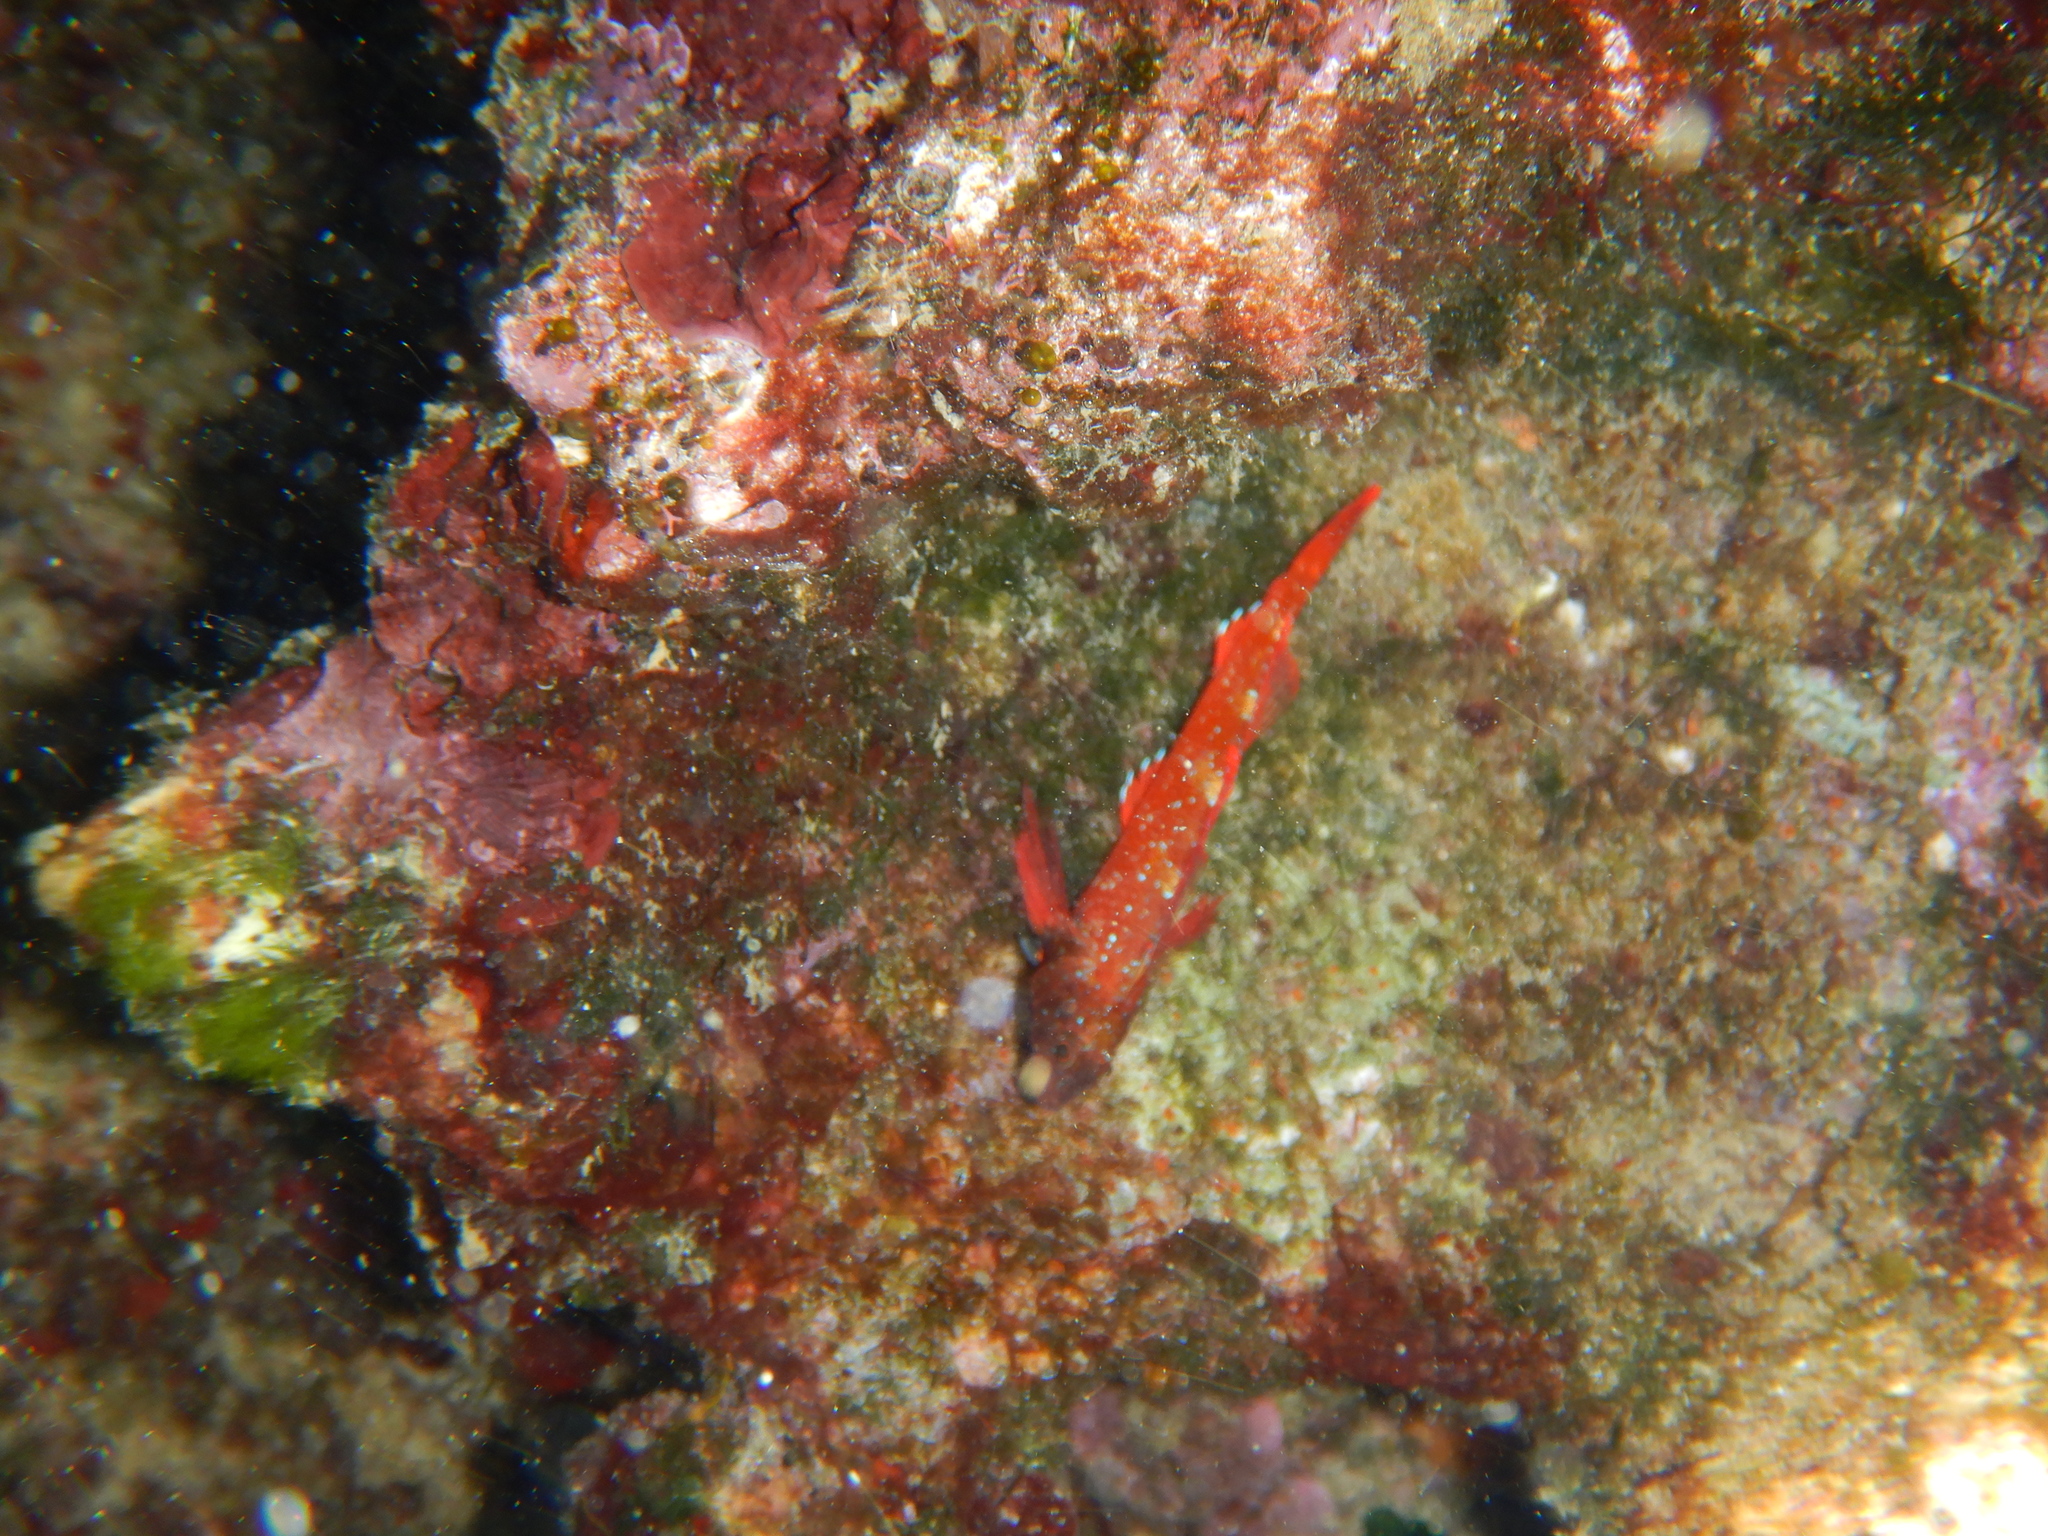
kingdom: Animalia
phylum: Chordata
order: Perciformes
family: Tripterygiidae
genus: Tripterygion
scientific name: Tripterygion tripteronotum
